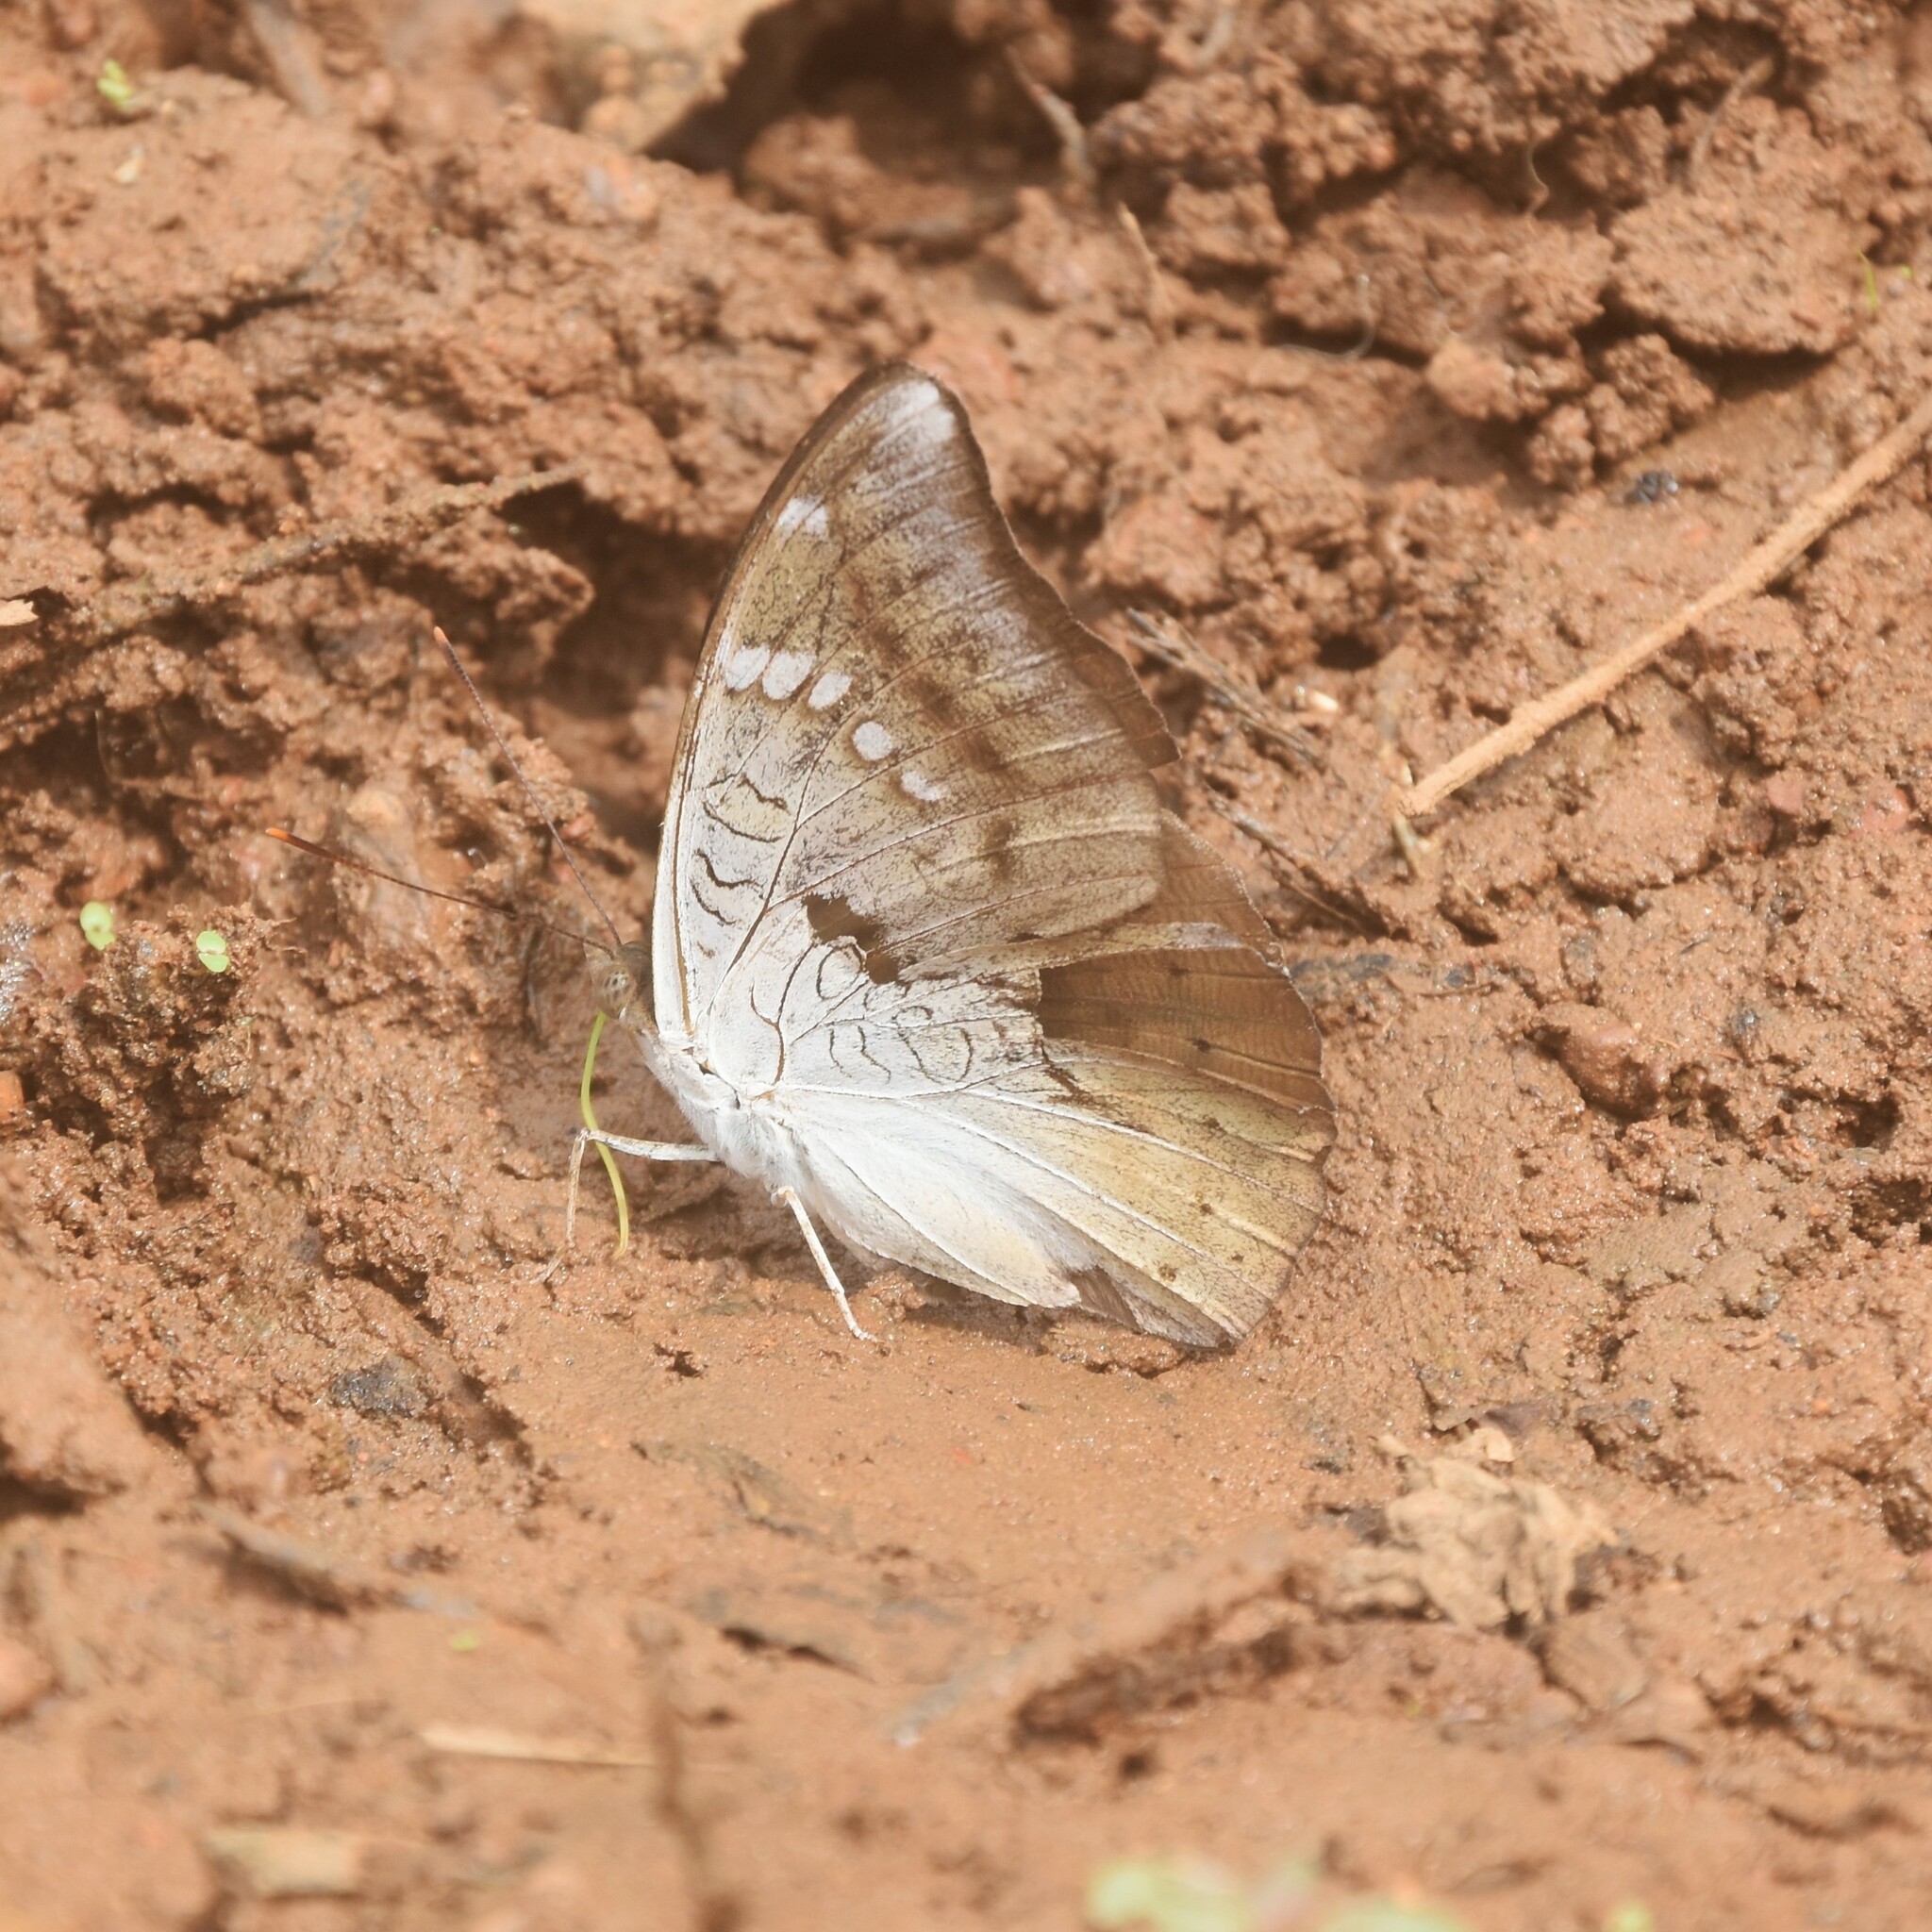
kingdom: Animalia
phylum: Arthropoda
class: Insecta
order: Lepidoptera
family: Nymphalidae
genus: Euthalia
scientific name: Euthalia aconthea
